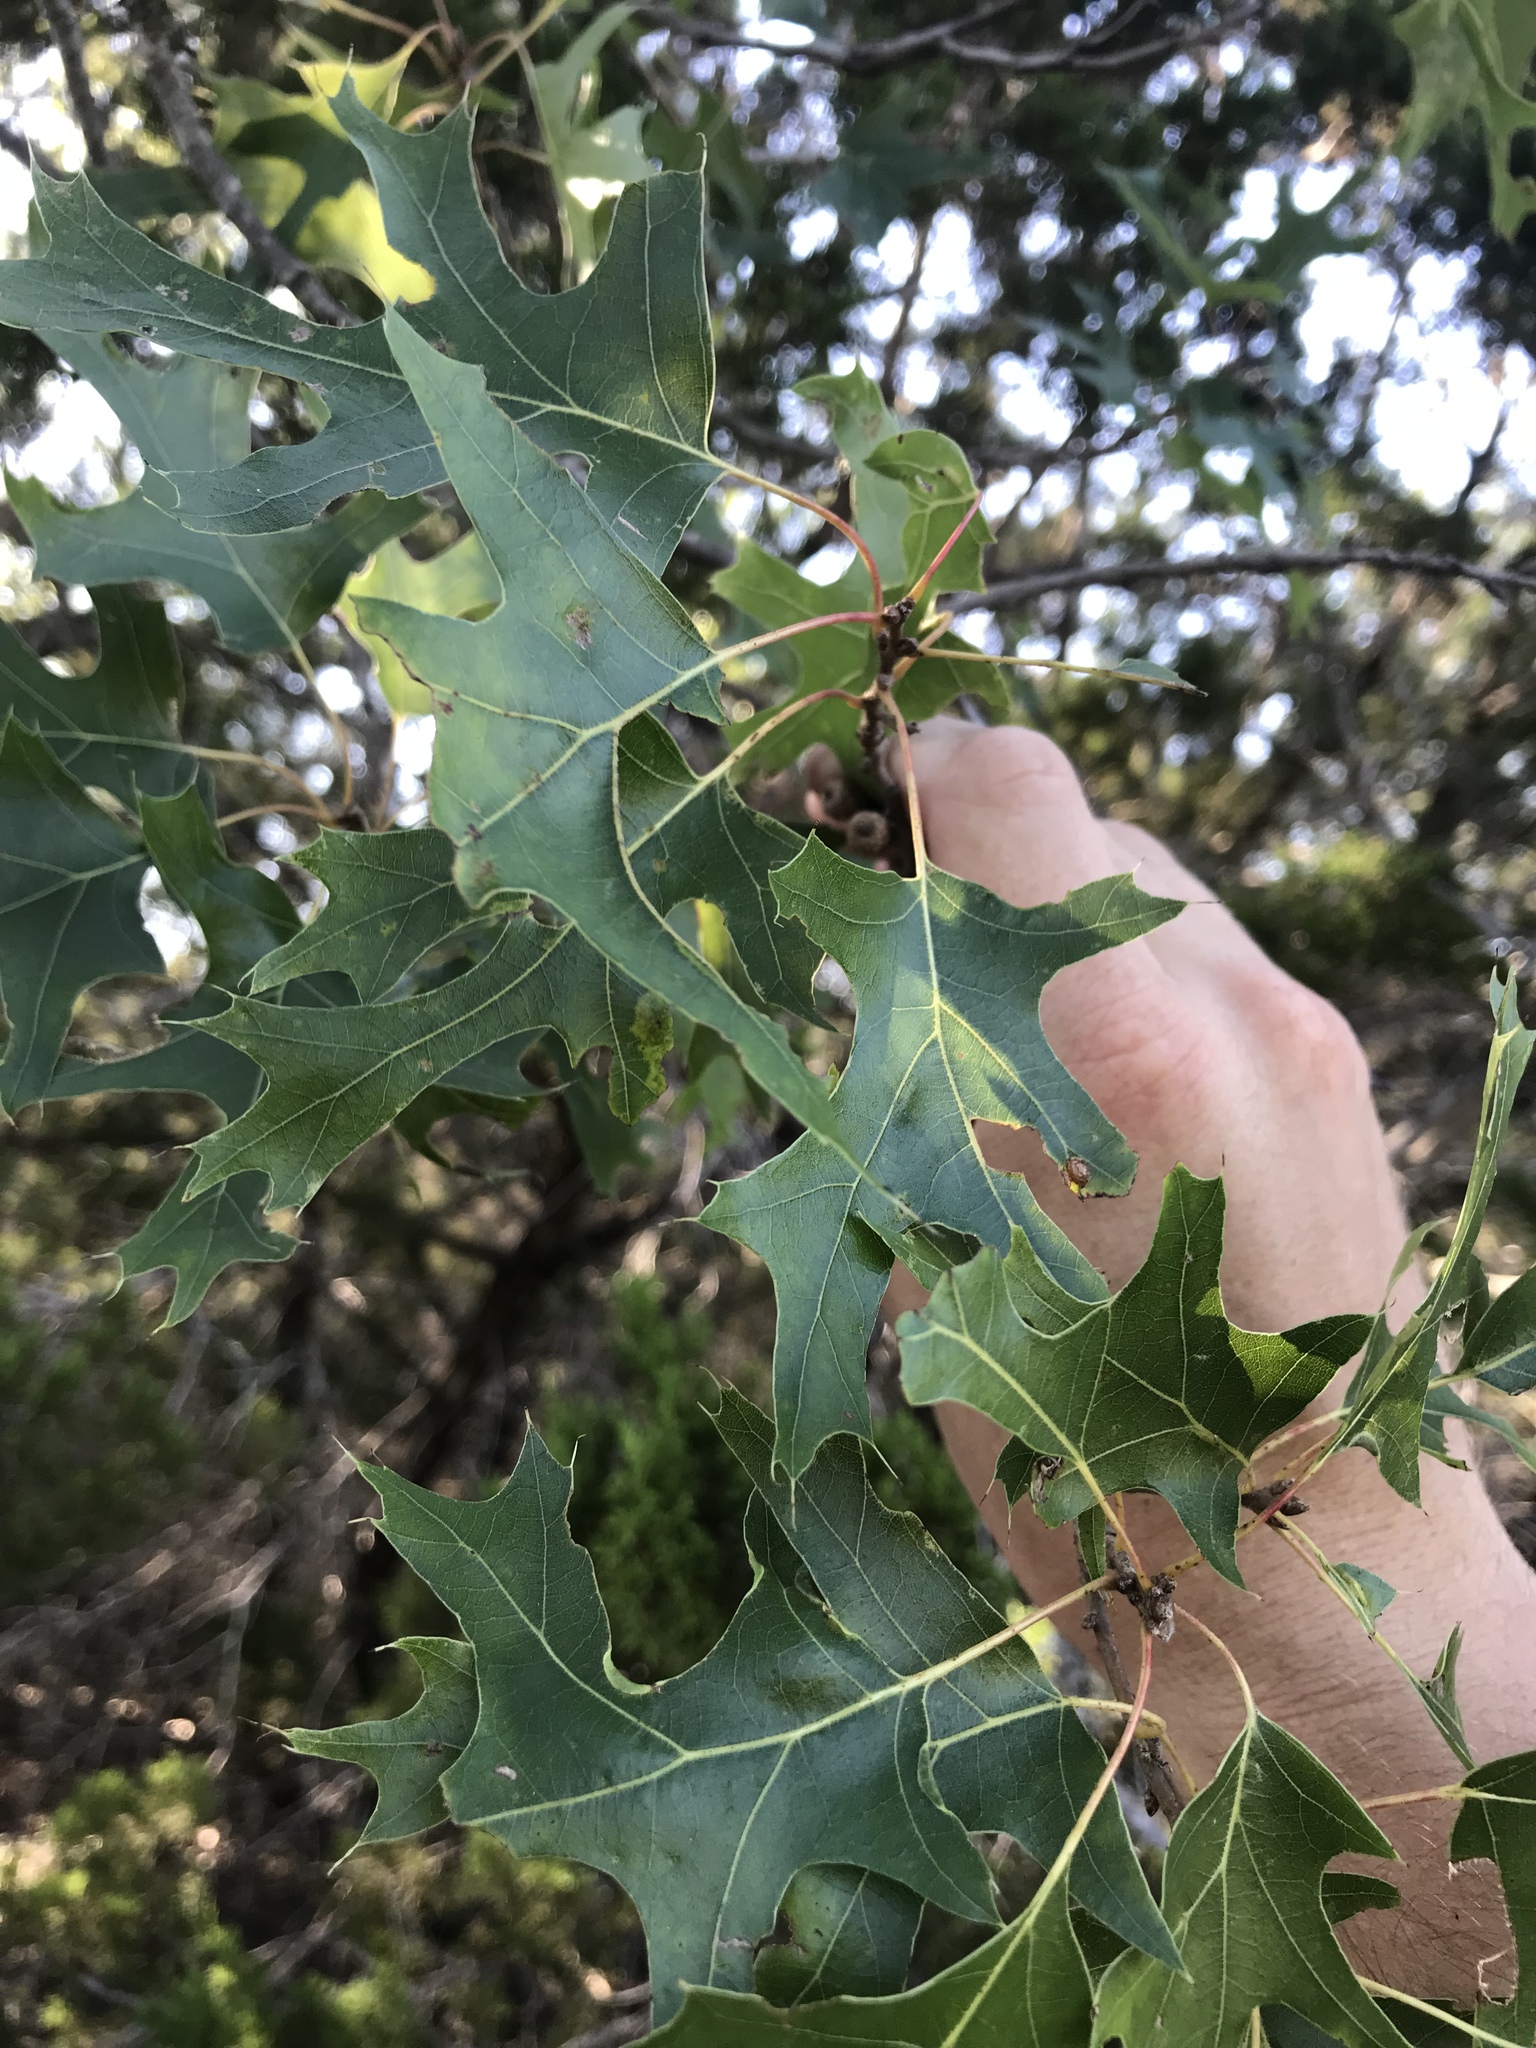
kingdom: Plantae
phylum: Tracheophyta
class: Magnoliopsida
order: Fagales
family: Fagaceae
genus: Quercus
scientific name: Quercus buckleyi
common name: Buckley oak
